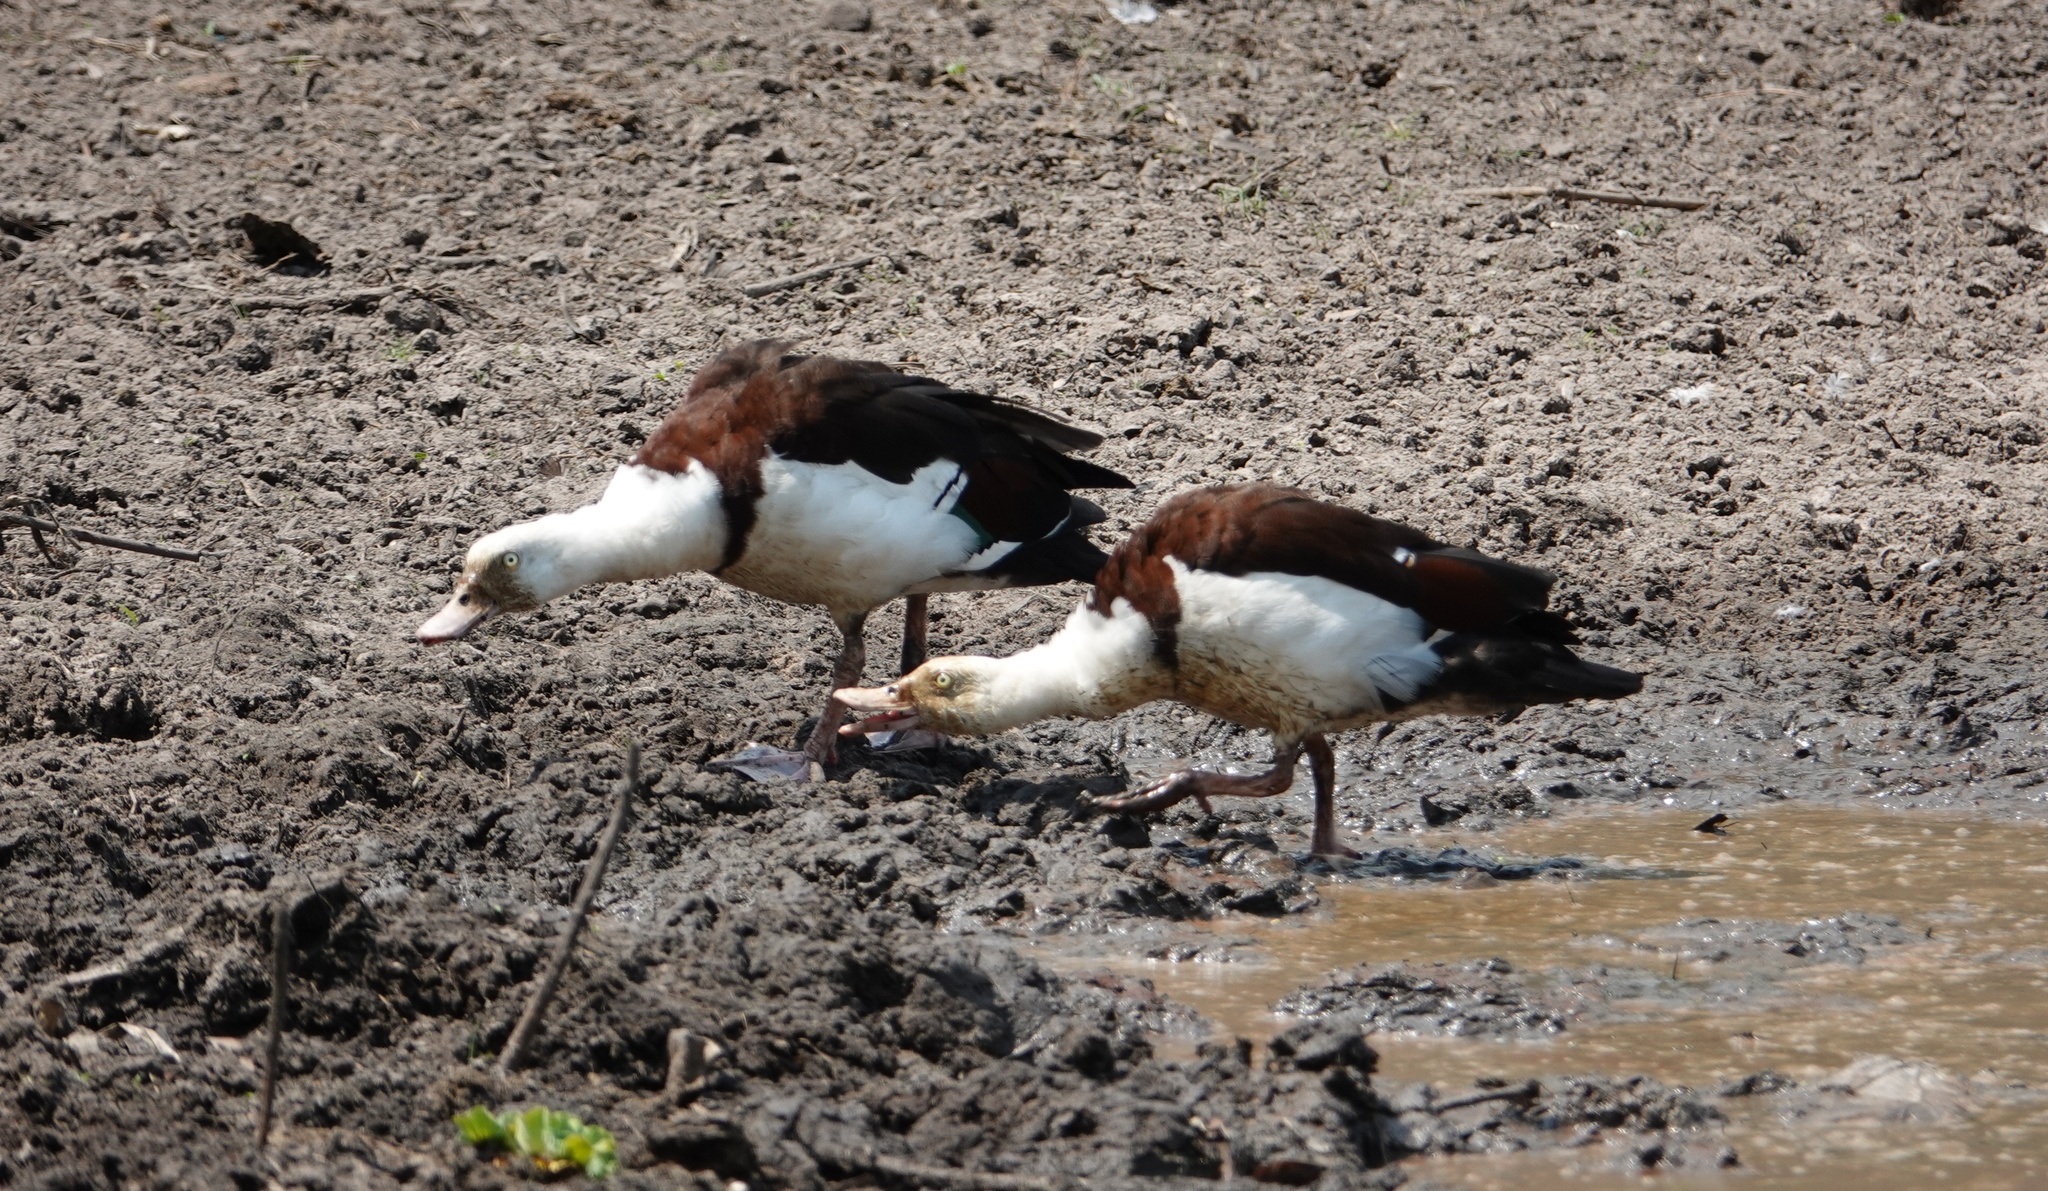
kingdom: Animalia
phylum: Chordata
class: Aves
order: Anseriformes
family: Anatidae
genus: Radjah
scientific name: Radjah radjah
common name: Radjah shelduck
